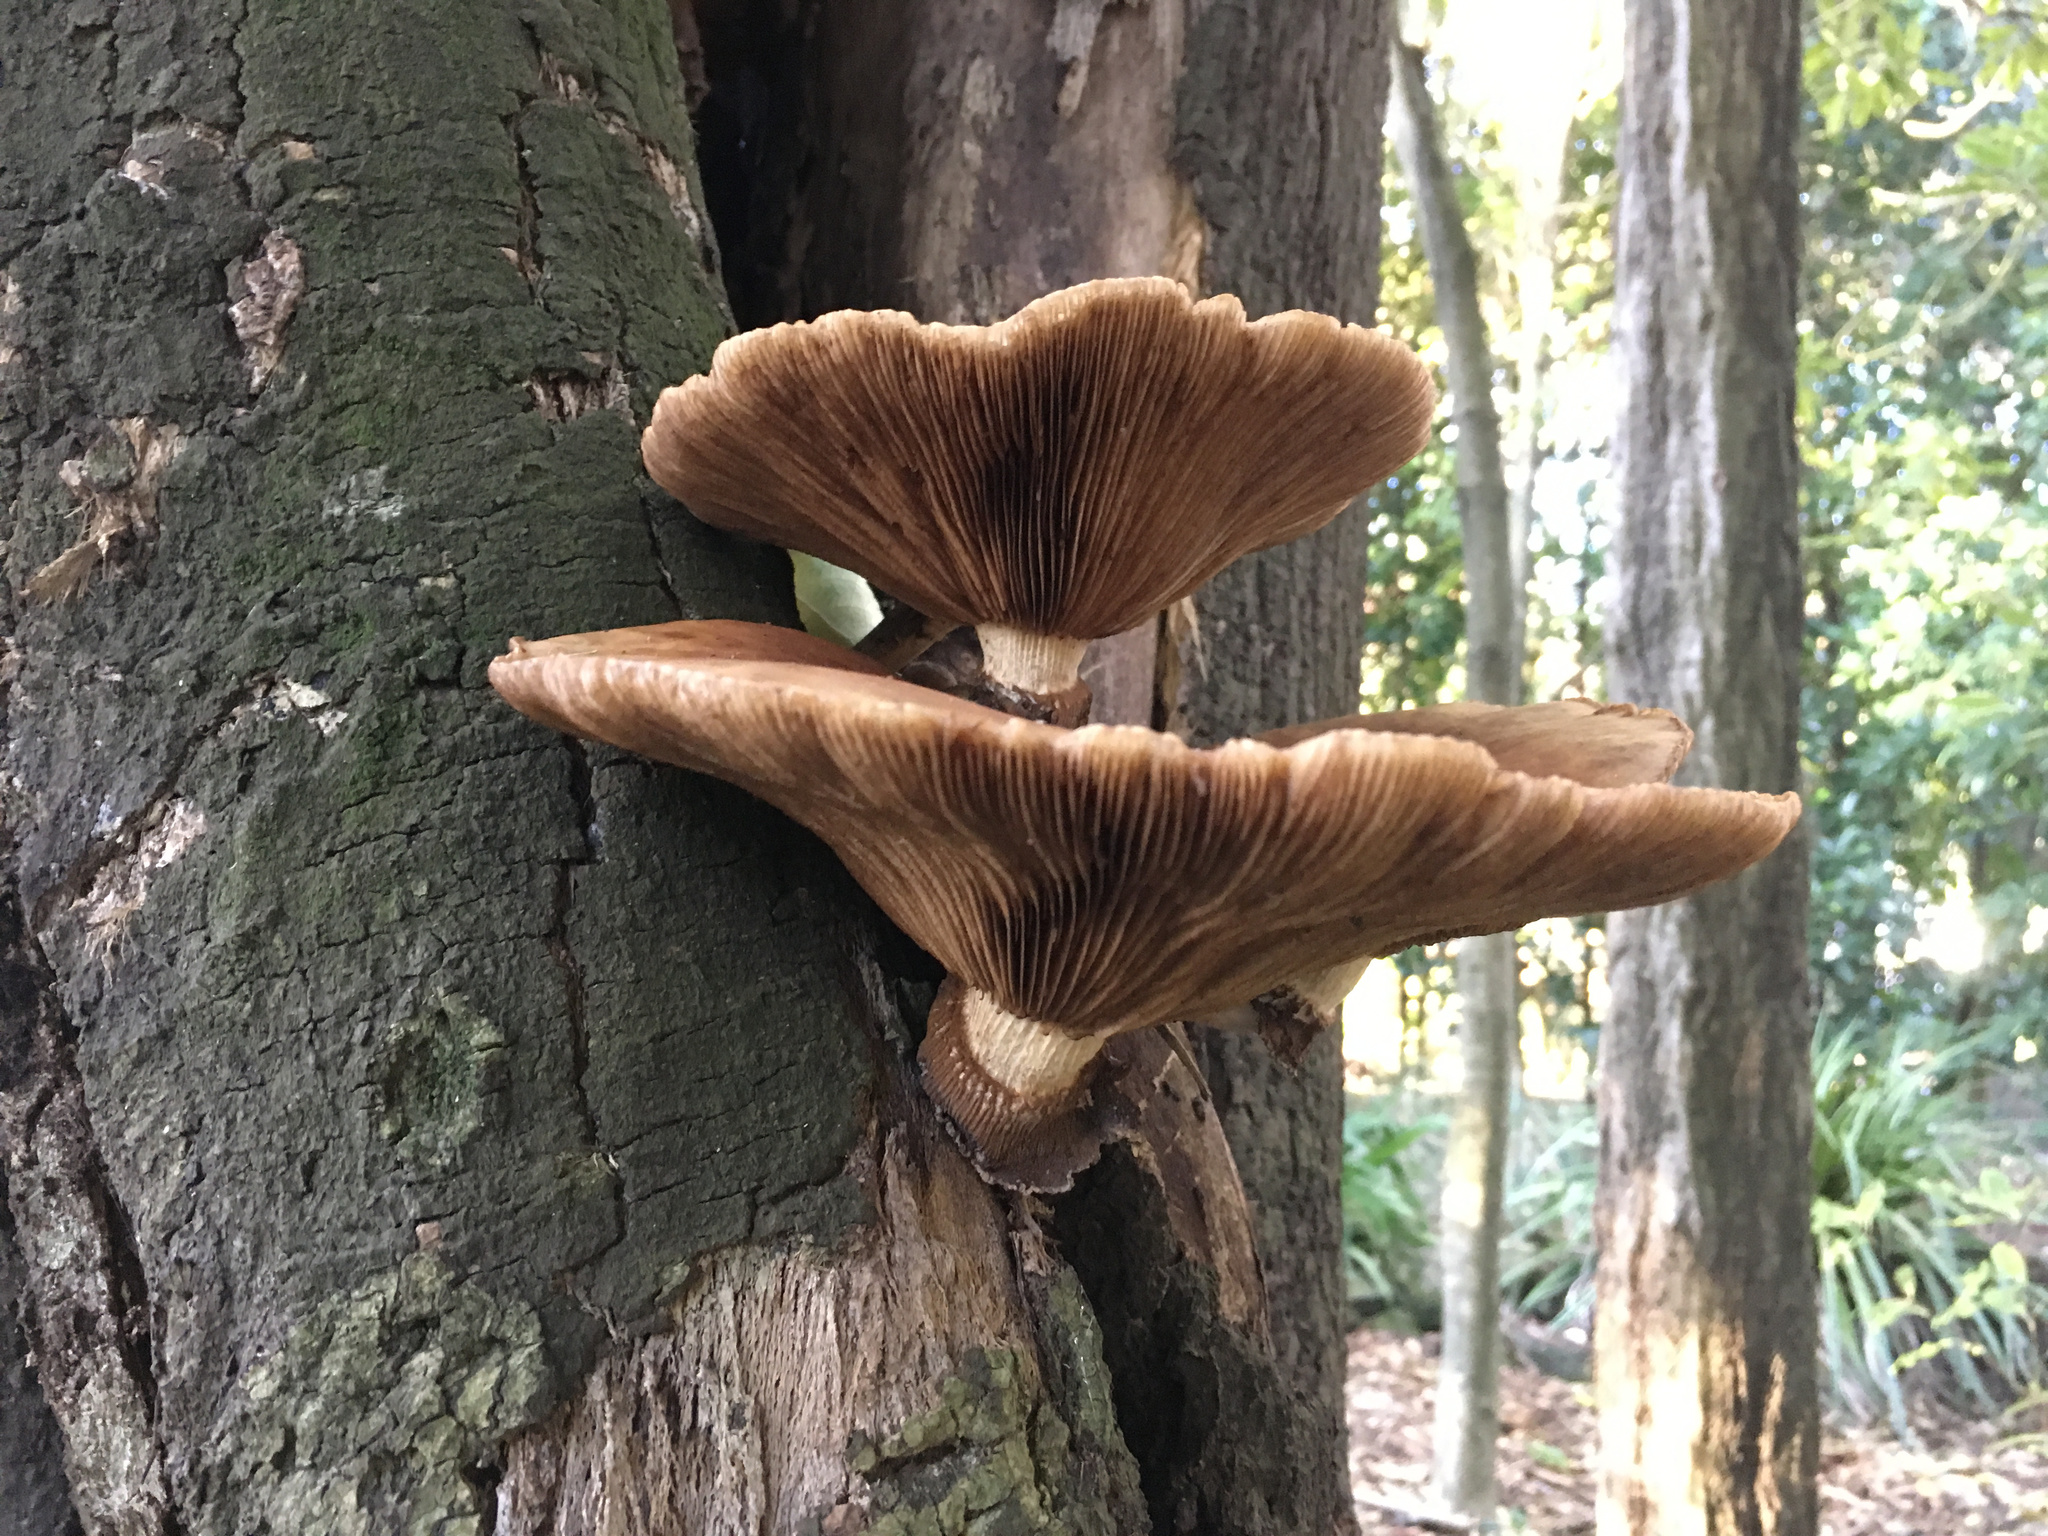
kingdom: Fungi
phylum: Basidiomycota
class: Agaricomycetes
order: Agaricales
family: Tubariaceae
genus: Cyclocybe
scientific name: Cyclocybe parasitica
